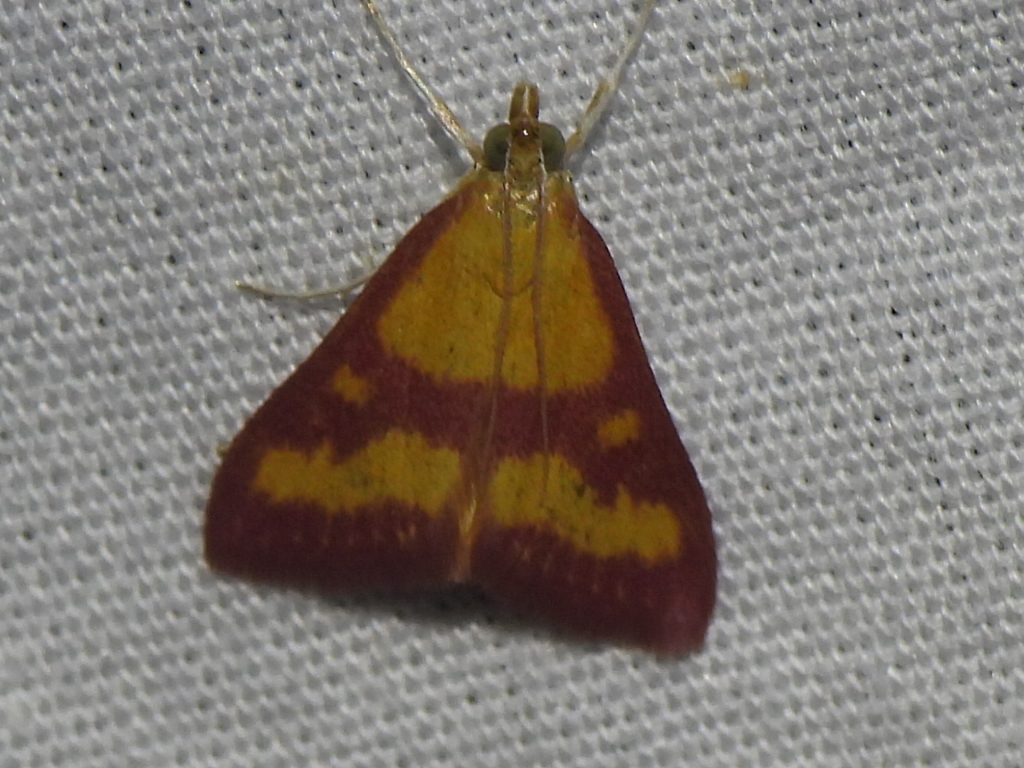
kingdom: Animalia
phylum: Arthropoda
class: Insecta
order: Lepidoptera
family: Crambidae
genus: Pyrausta
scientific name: Pyrausta laticlavia
